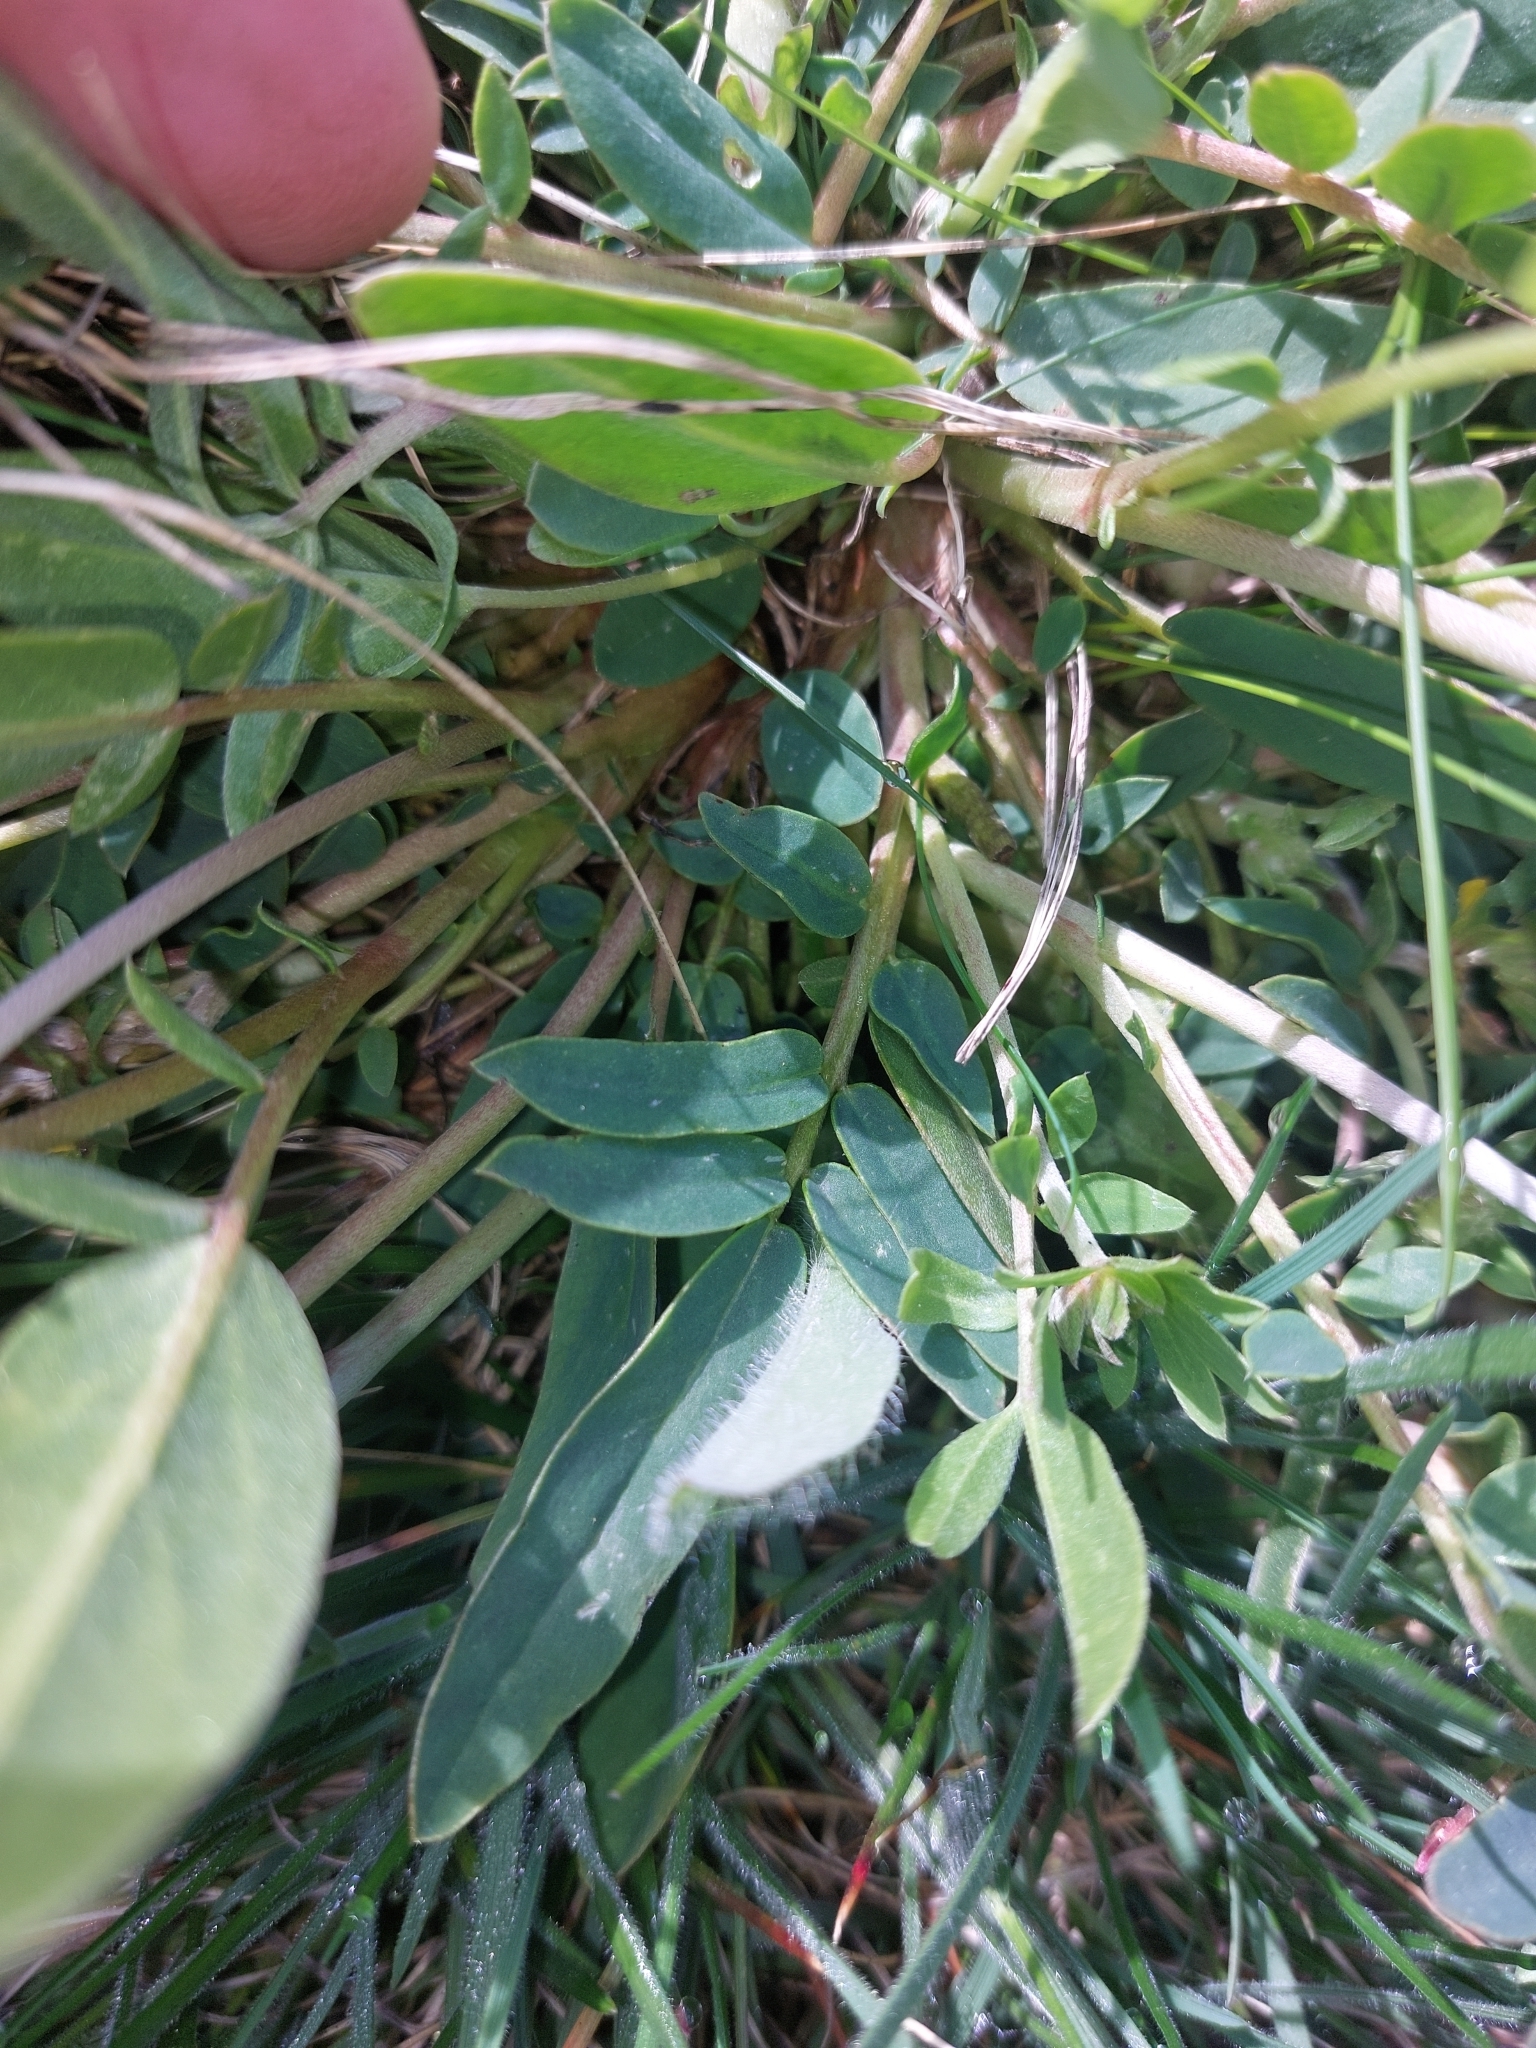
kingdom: Plantae
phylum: Tracheophyta
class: Magnoliopsida
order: Fabales
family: Fabaceae
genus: Anthyllis
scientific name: Anthyllis vulneraria
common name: Kidney vetch
